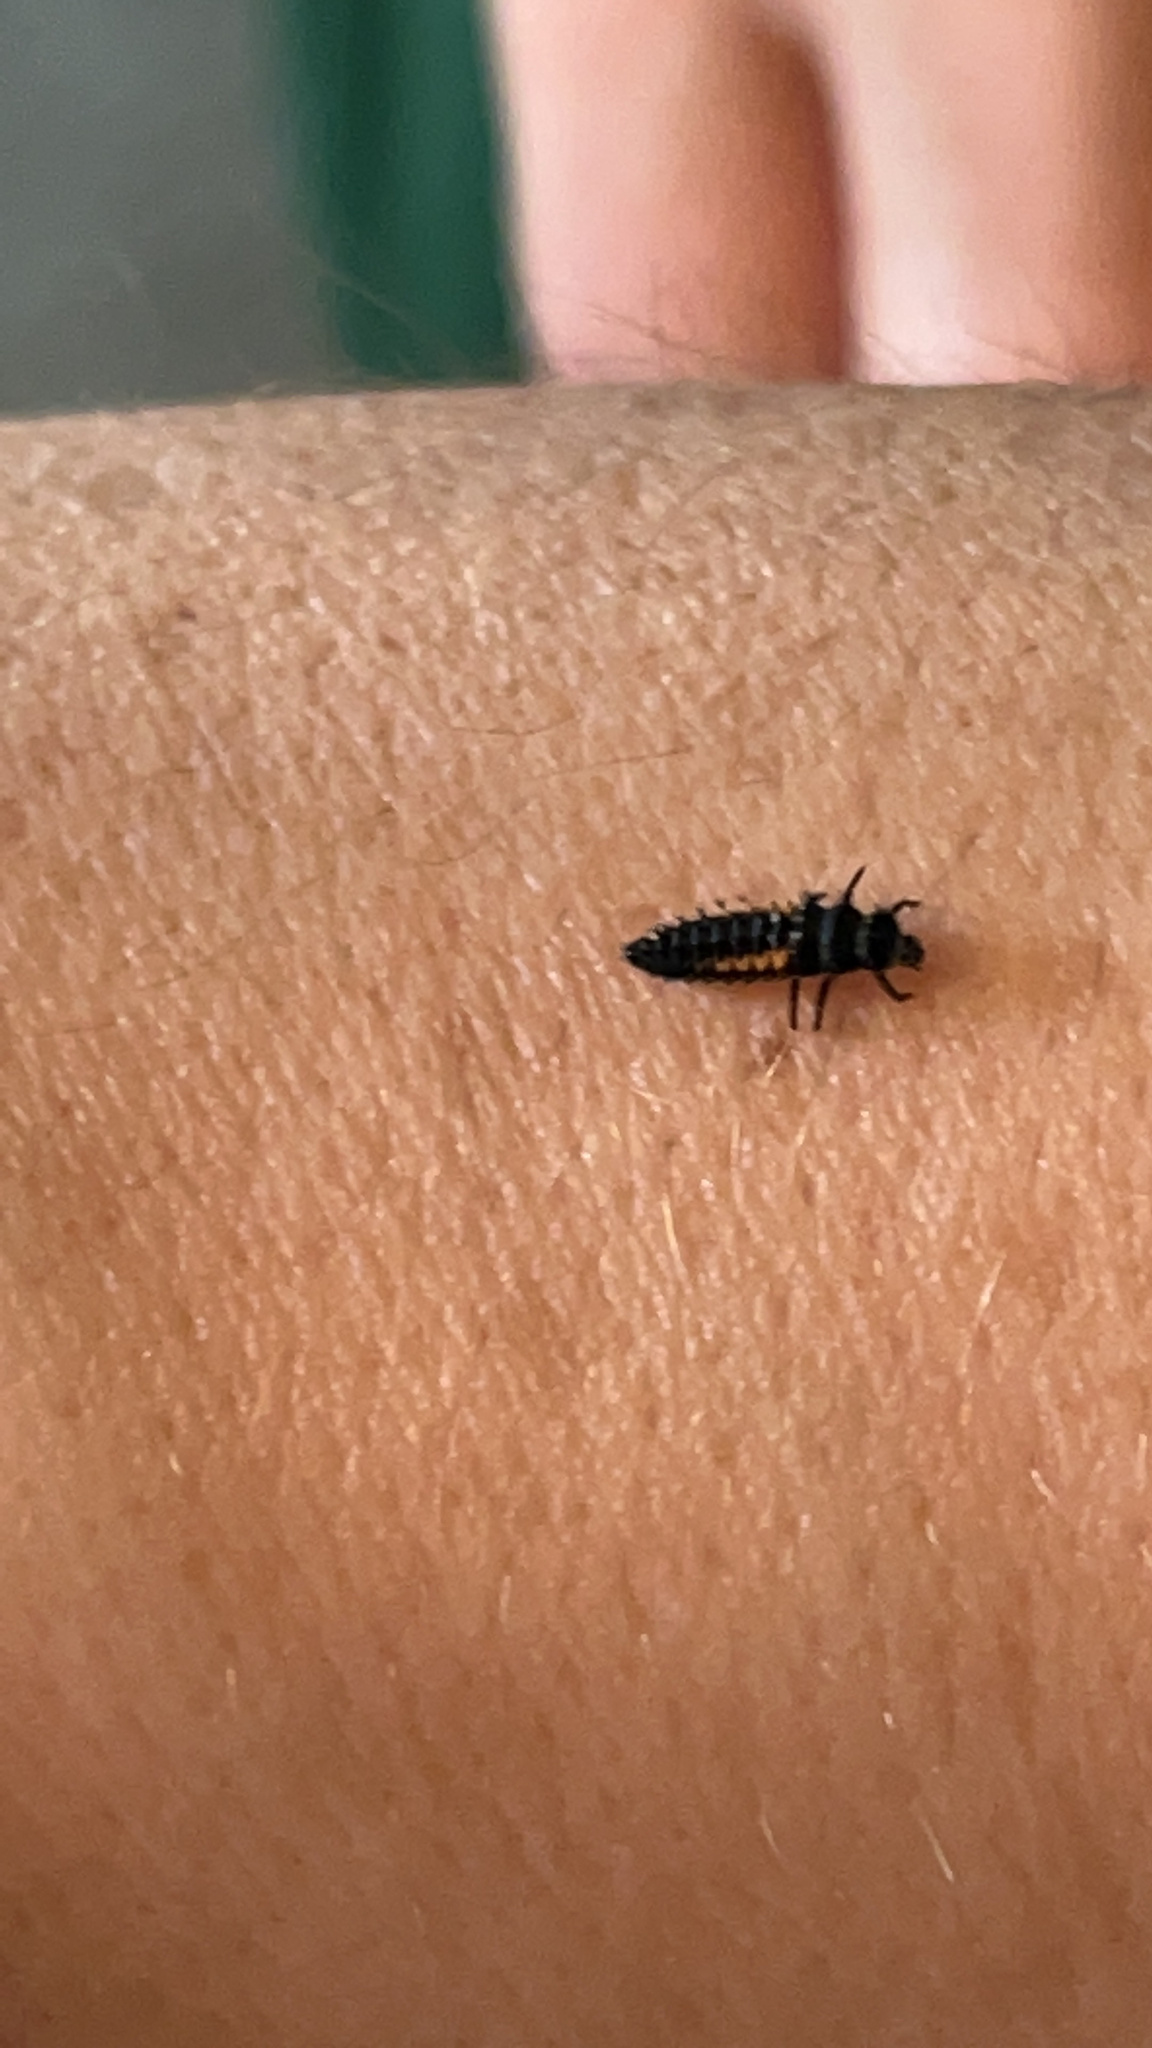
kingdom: Animalia
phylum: Arthropoda
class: Insecta
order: Coleoptera
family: Coccinellidae
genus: Harmonia
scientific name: Harmonia axyridis
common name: Harlequin ladybird
